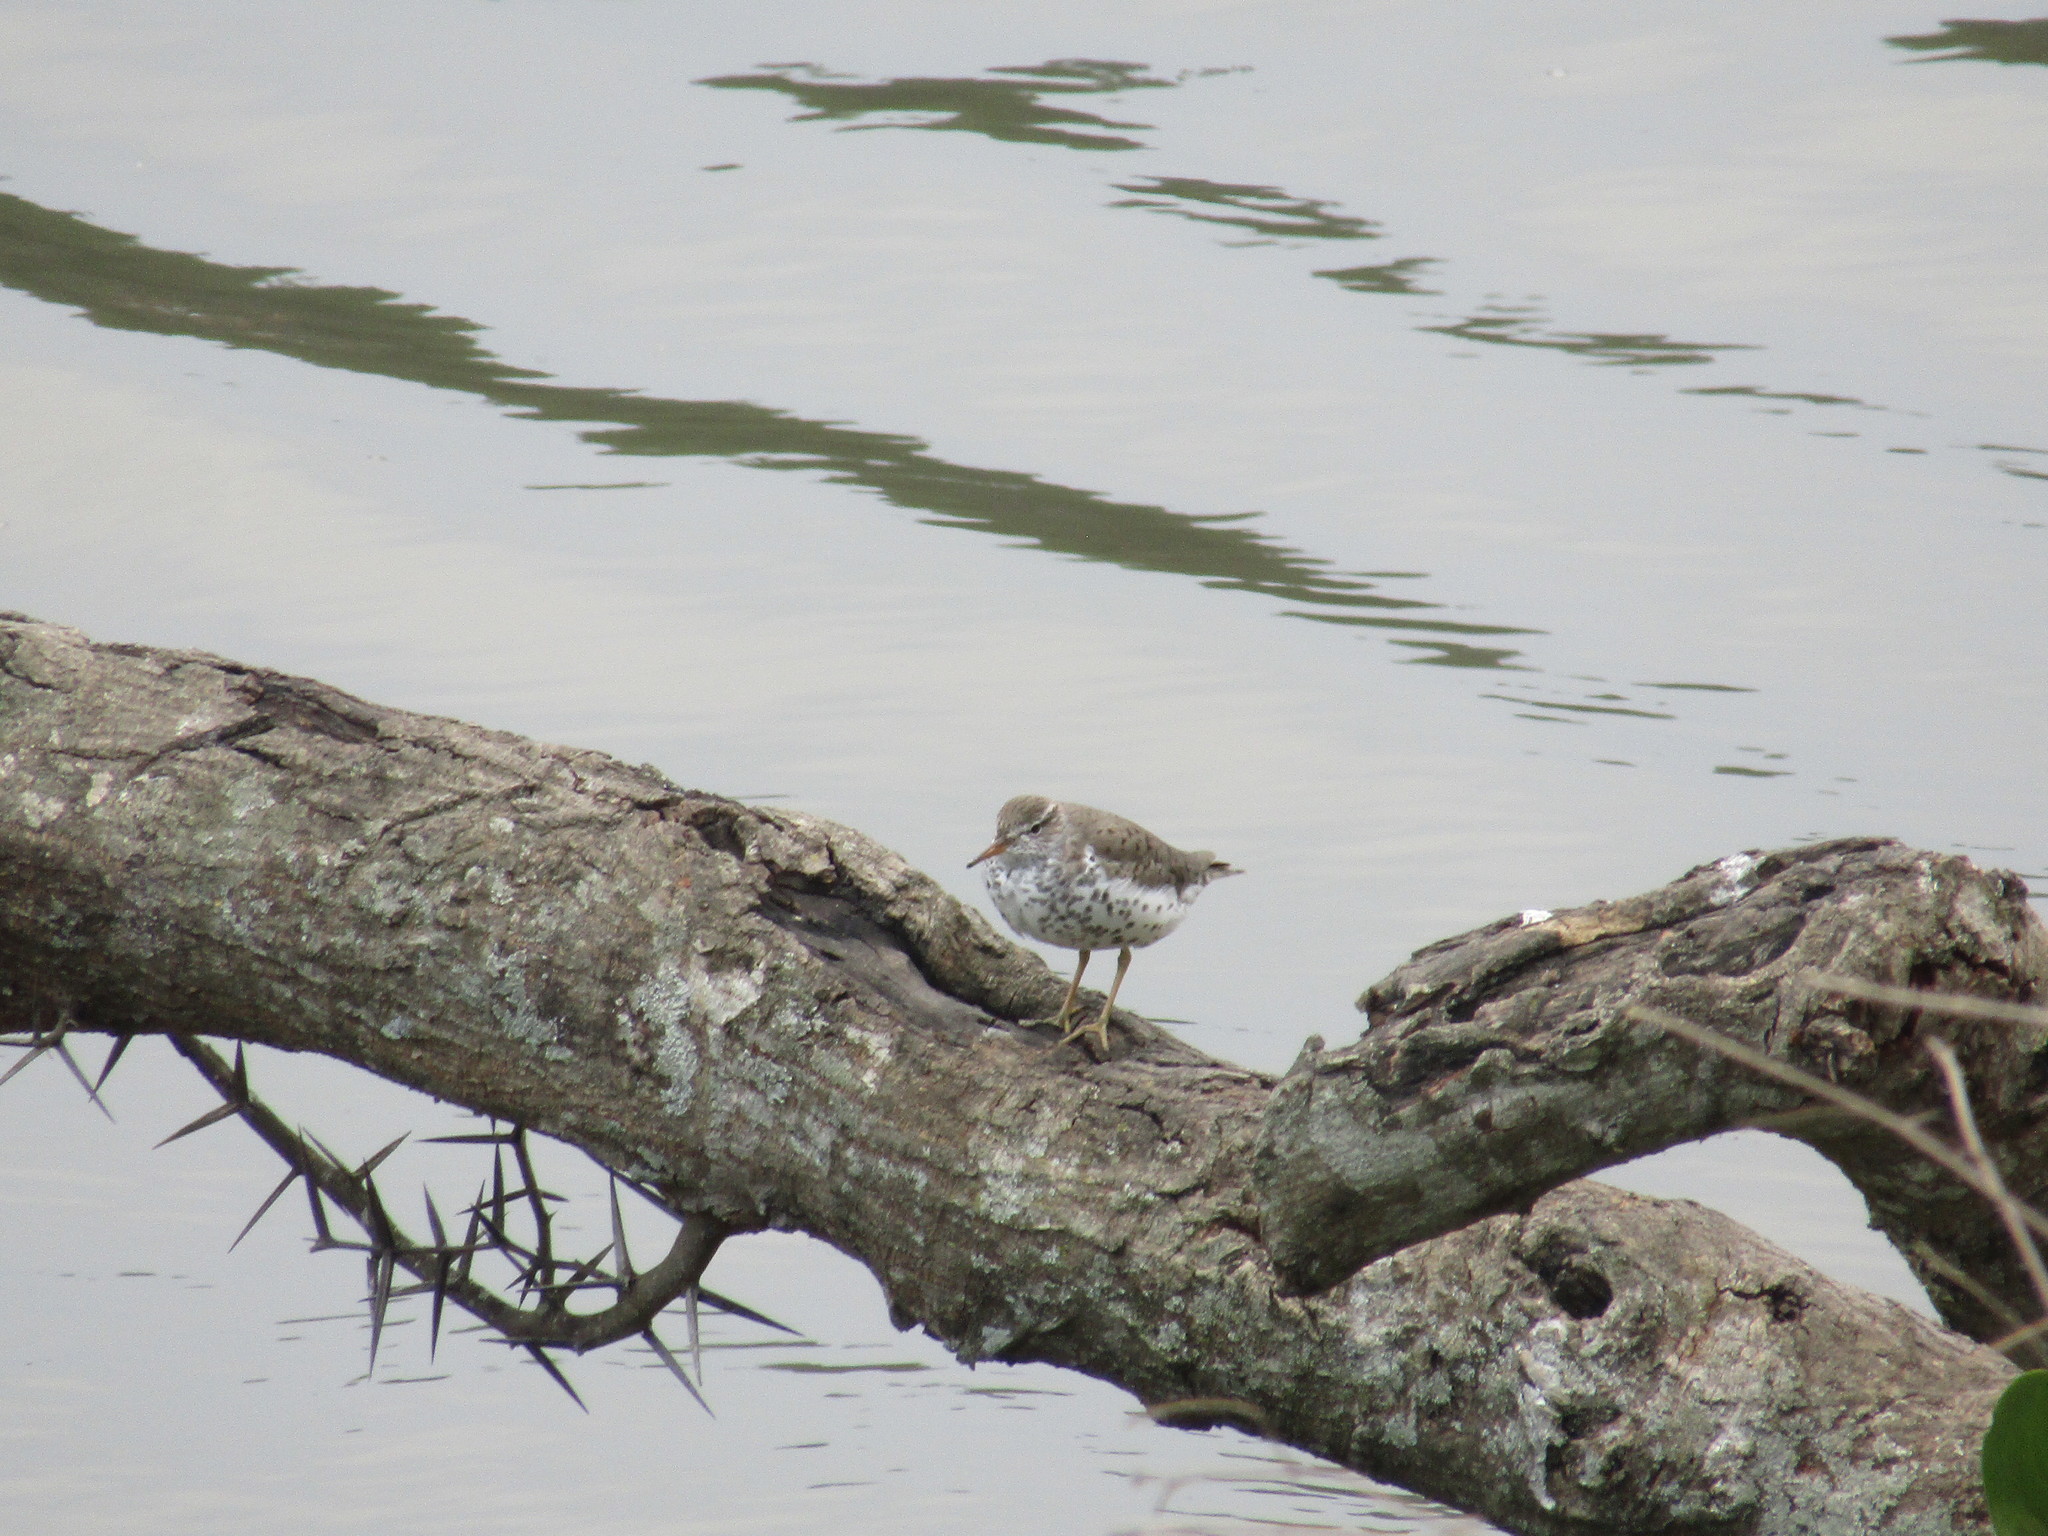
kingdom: Animalia
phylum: Chordata
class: Aves
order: Charadriiformes
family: Scolopacidae
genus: Actitis
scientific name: Actitis macularius
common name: Spotted sandpiper
